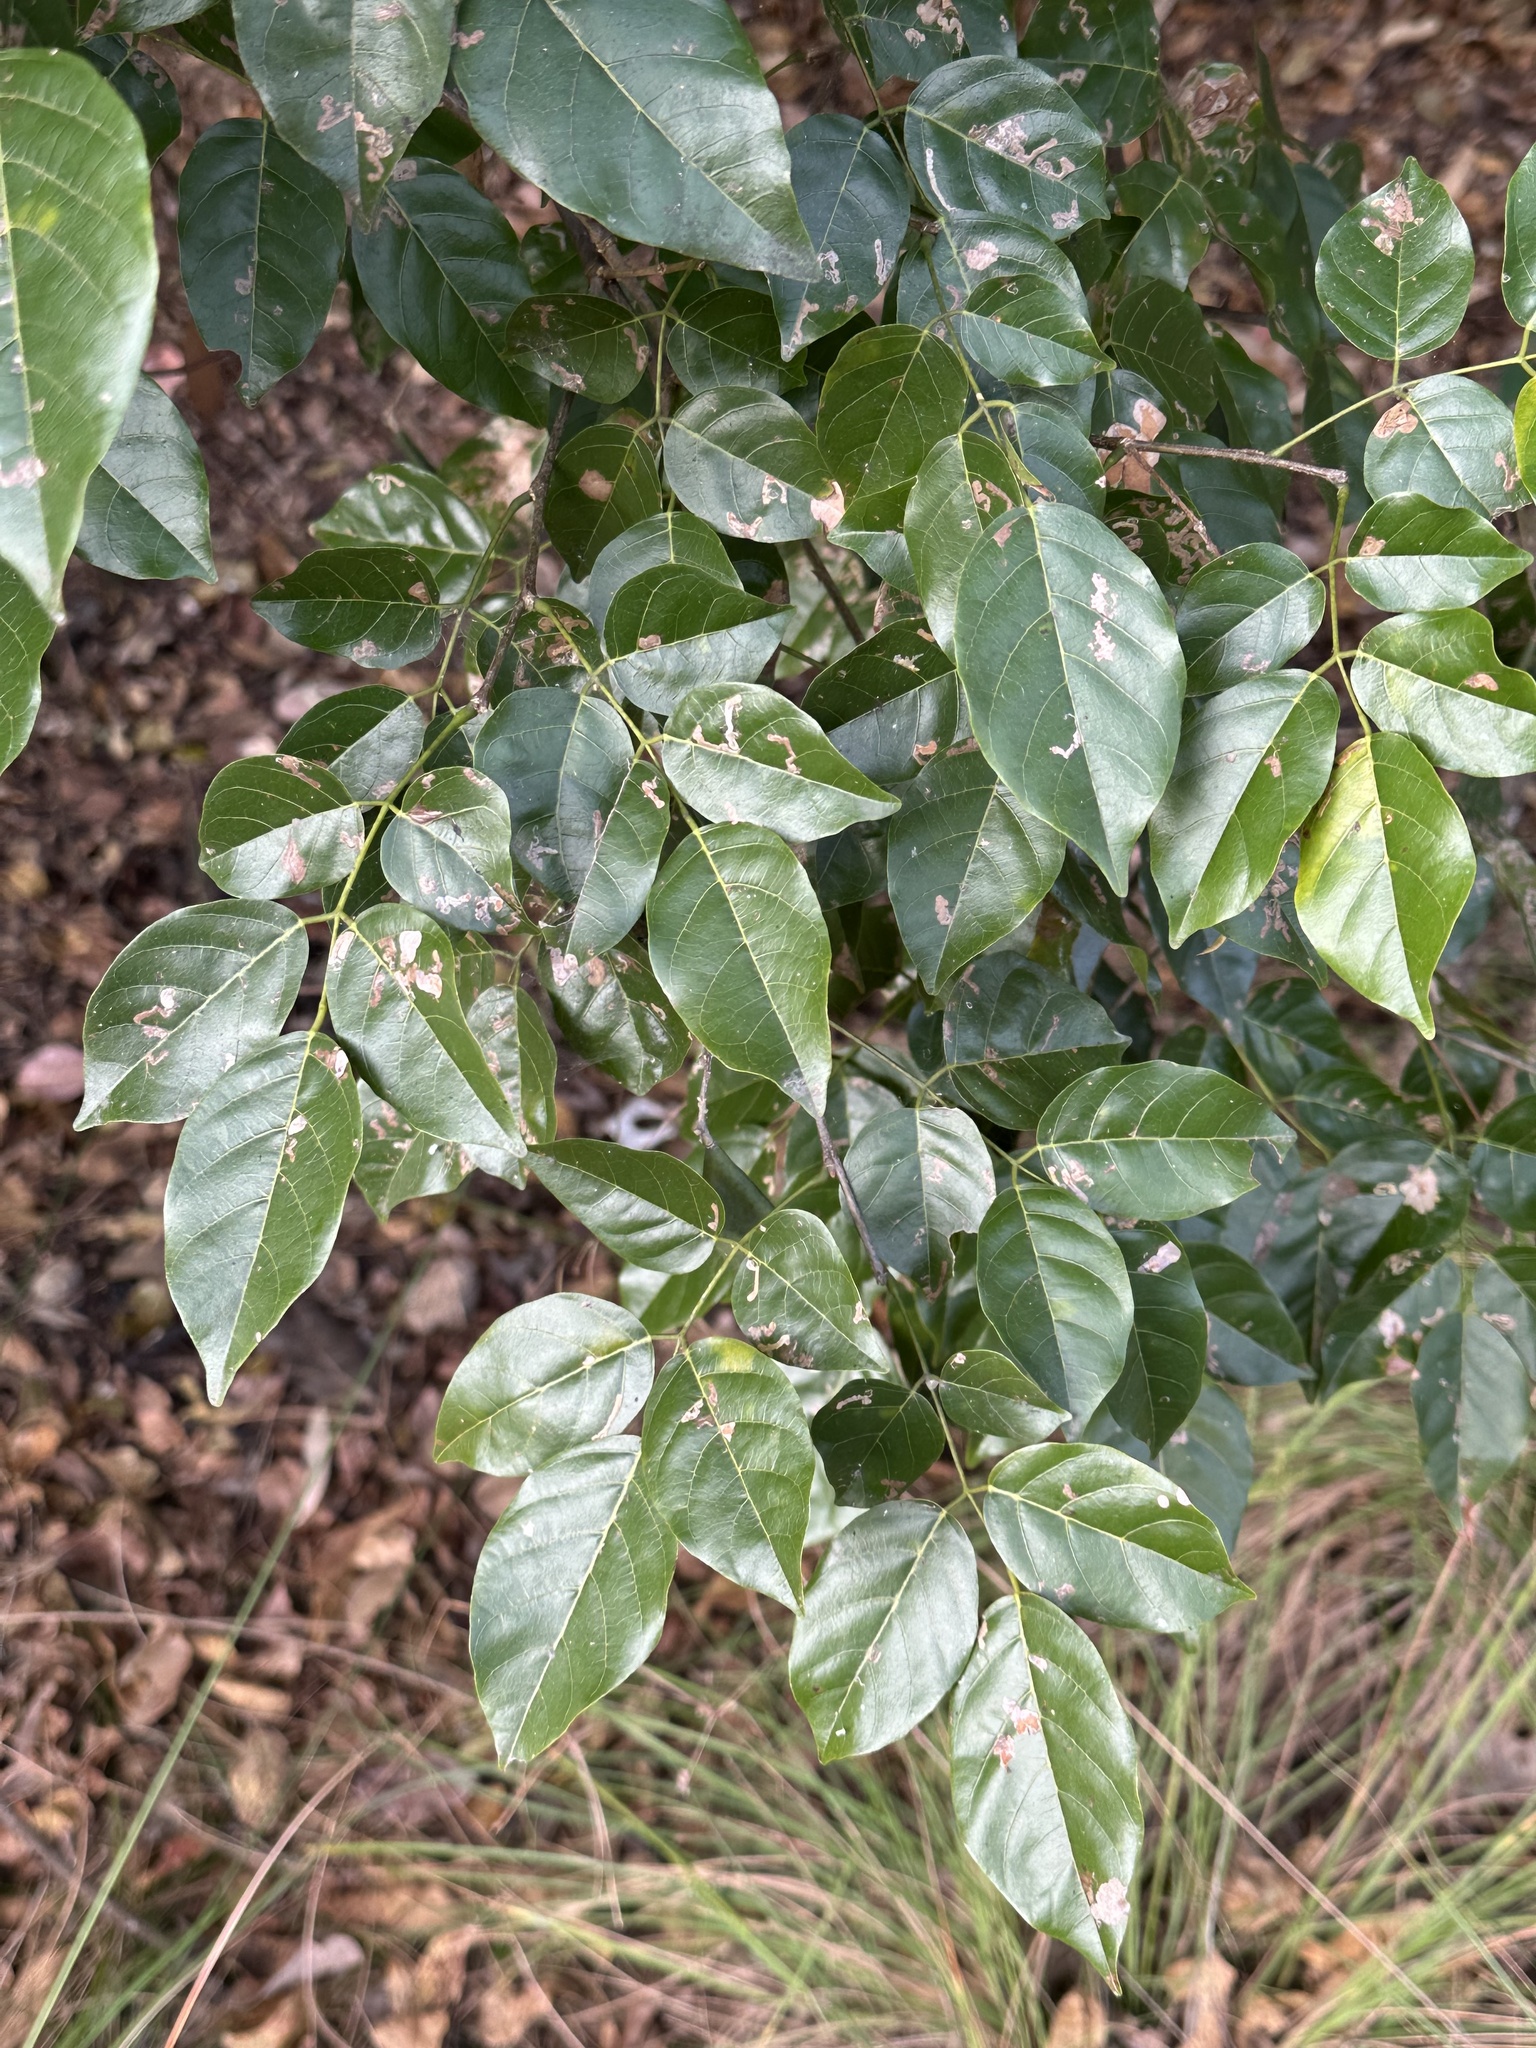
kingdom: Plantae
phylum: Tracheophyta
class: Magnoliopsida
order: Fabales
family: Fabaceae
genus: Pongamia
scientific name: Pongamia pinnata
